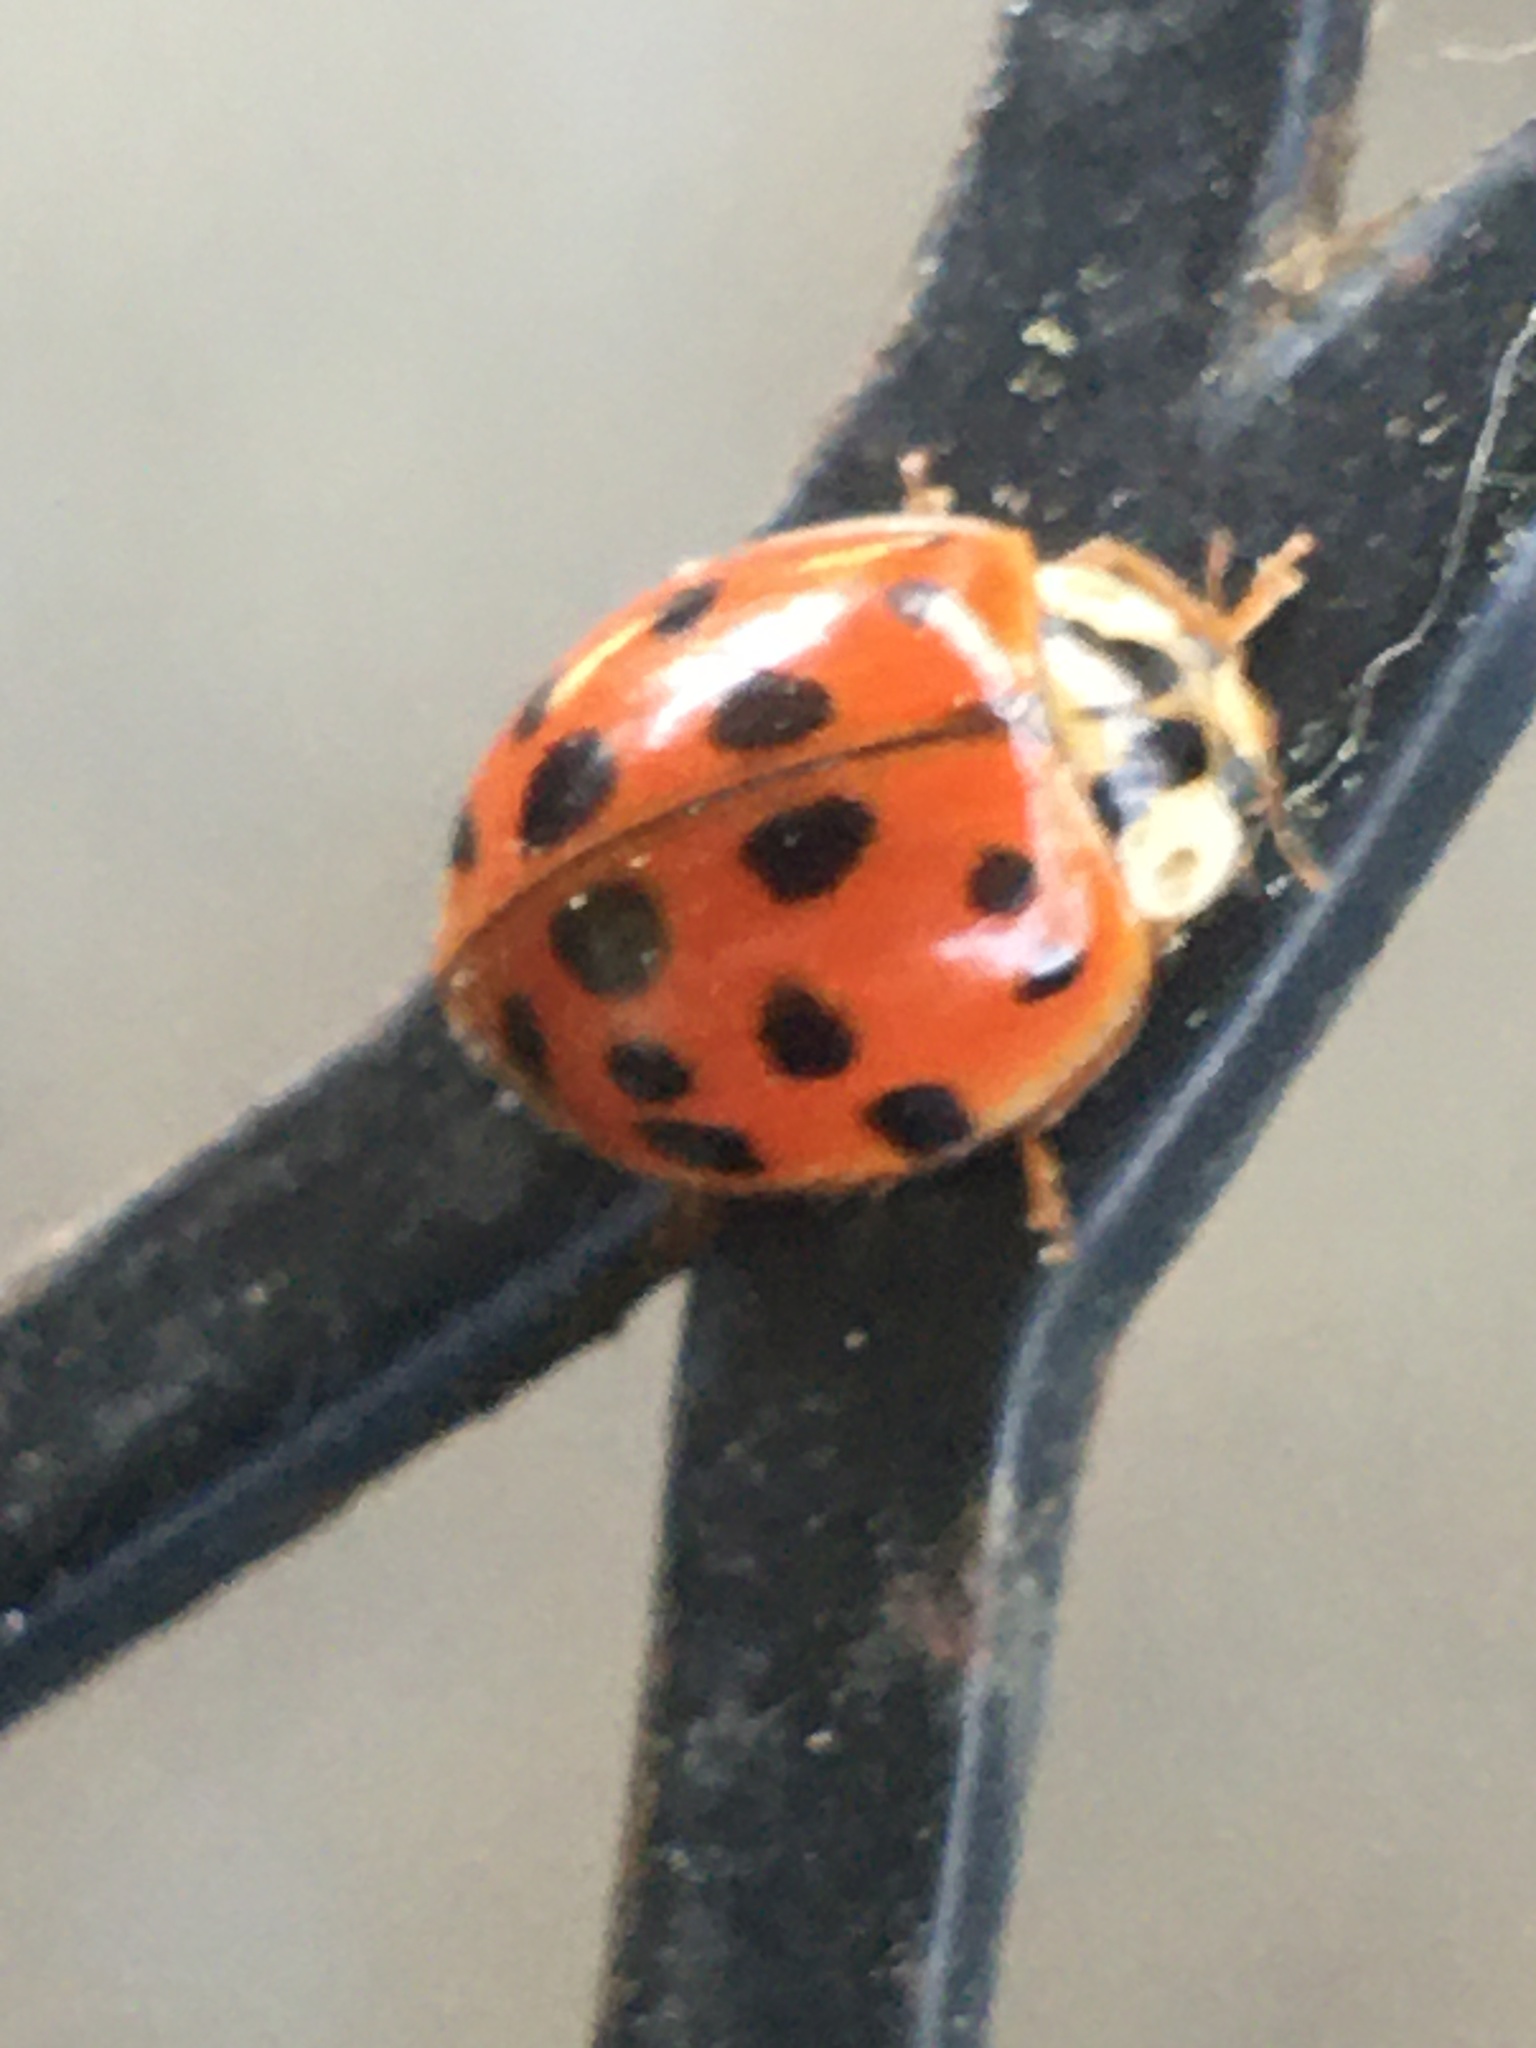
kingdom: Animalia
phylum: Arthropoda
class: Insecta
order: Coleoptera
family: Coccinellidae
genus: Harmonia
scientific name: Harmonia axyridis
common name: Harlequin ladybird
